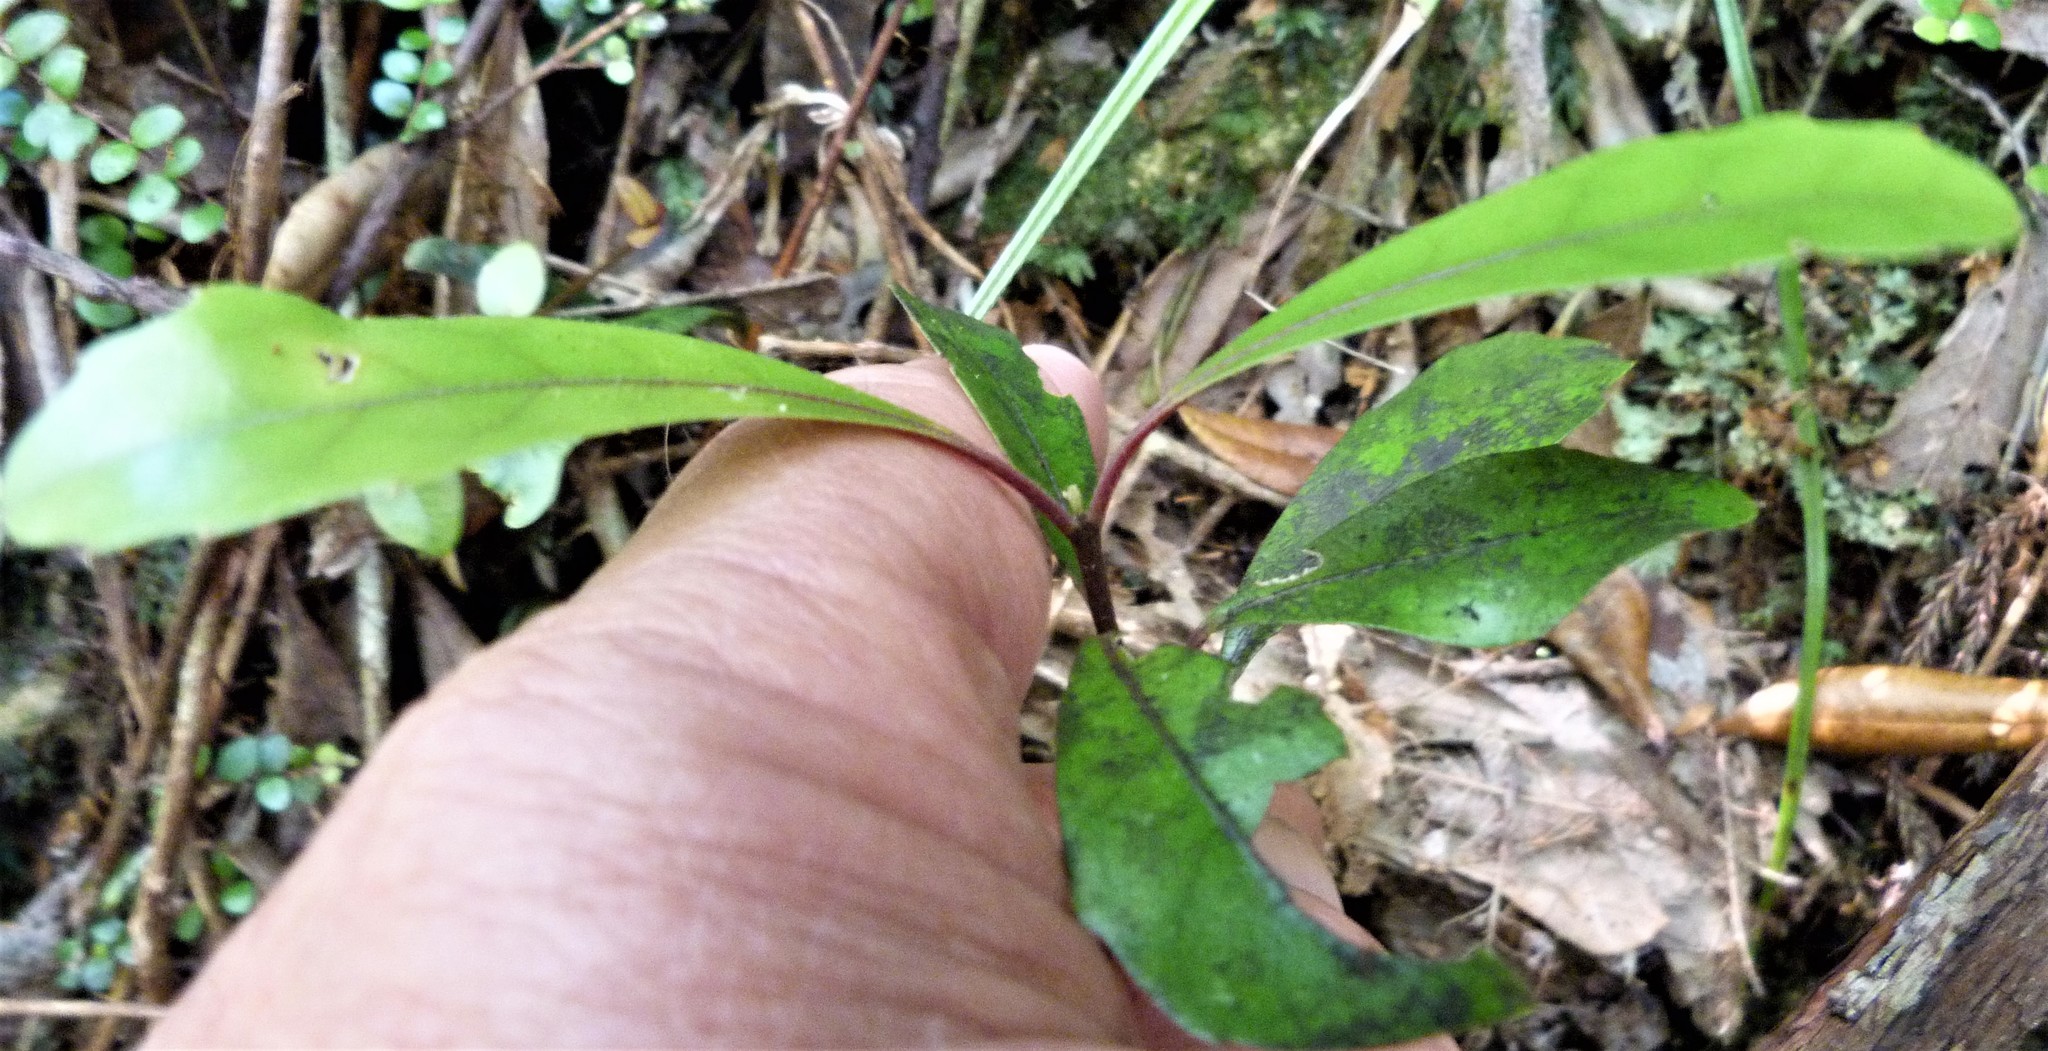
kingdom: Plantae
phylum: Tracheophyta
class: Magnoliopsida
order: Laurales
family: Monimiaceae
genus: Hedycarya
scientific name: Hedycarya arborea
